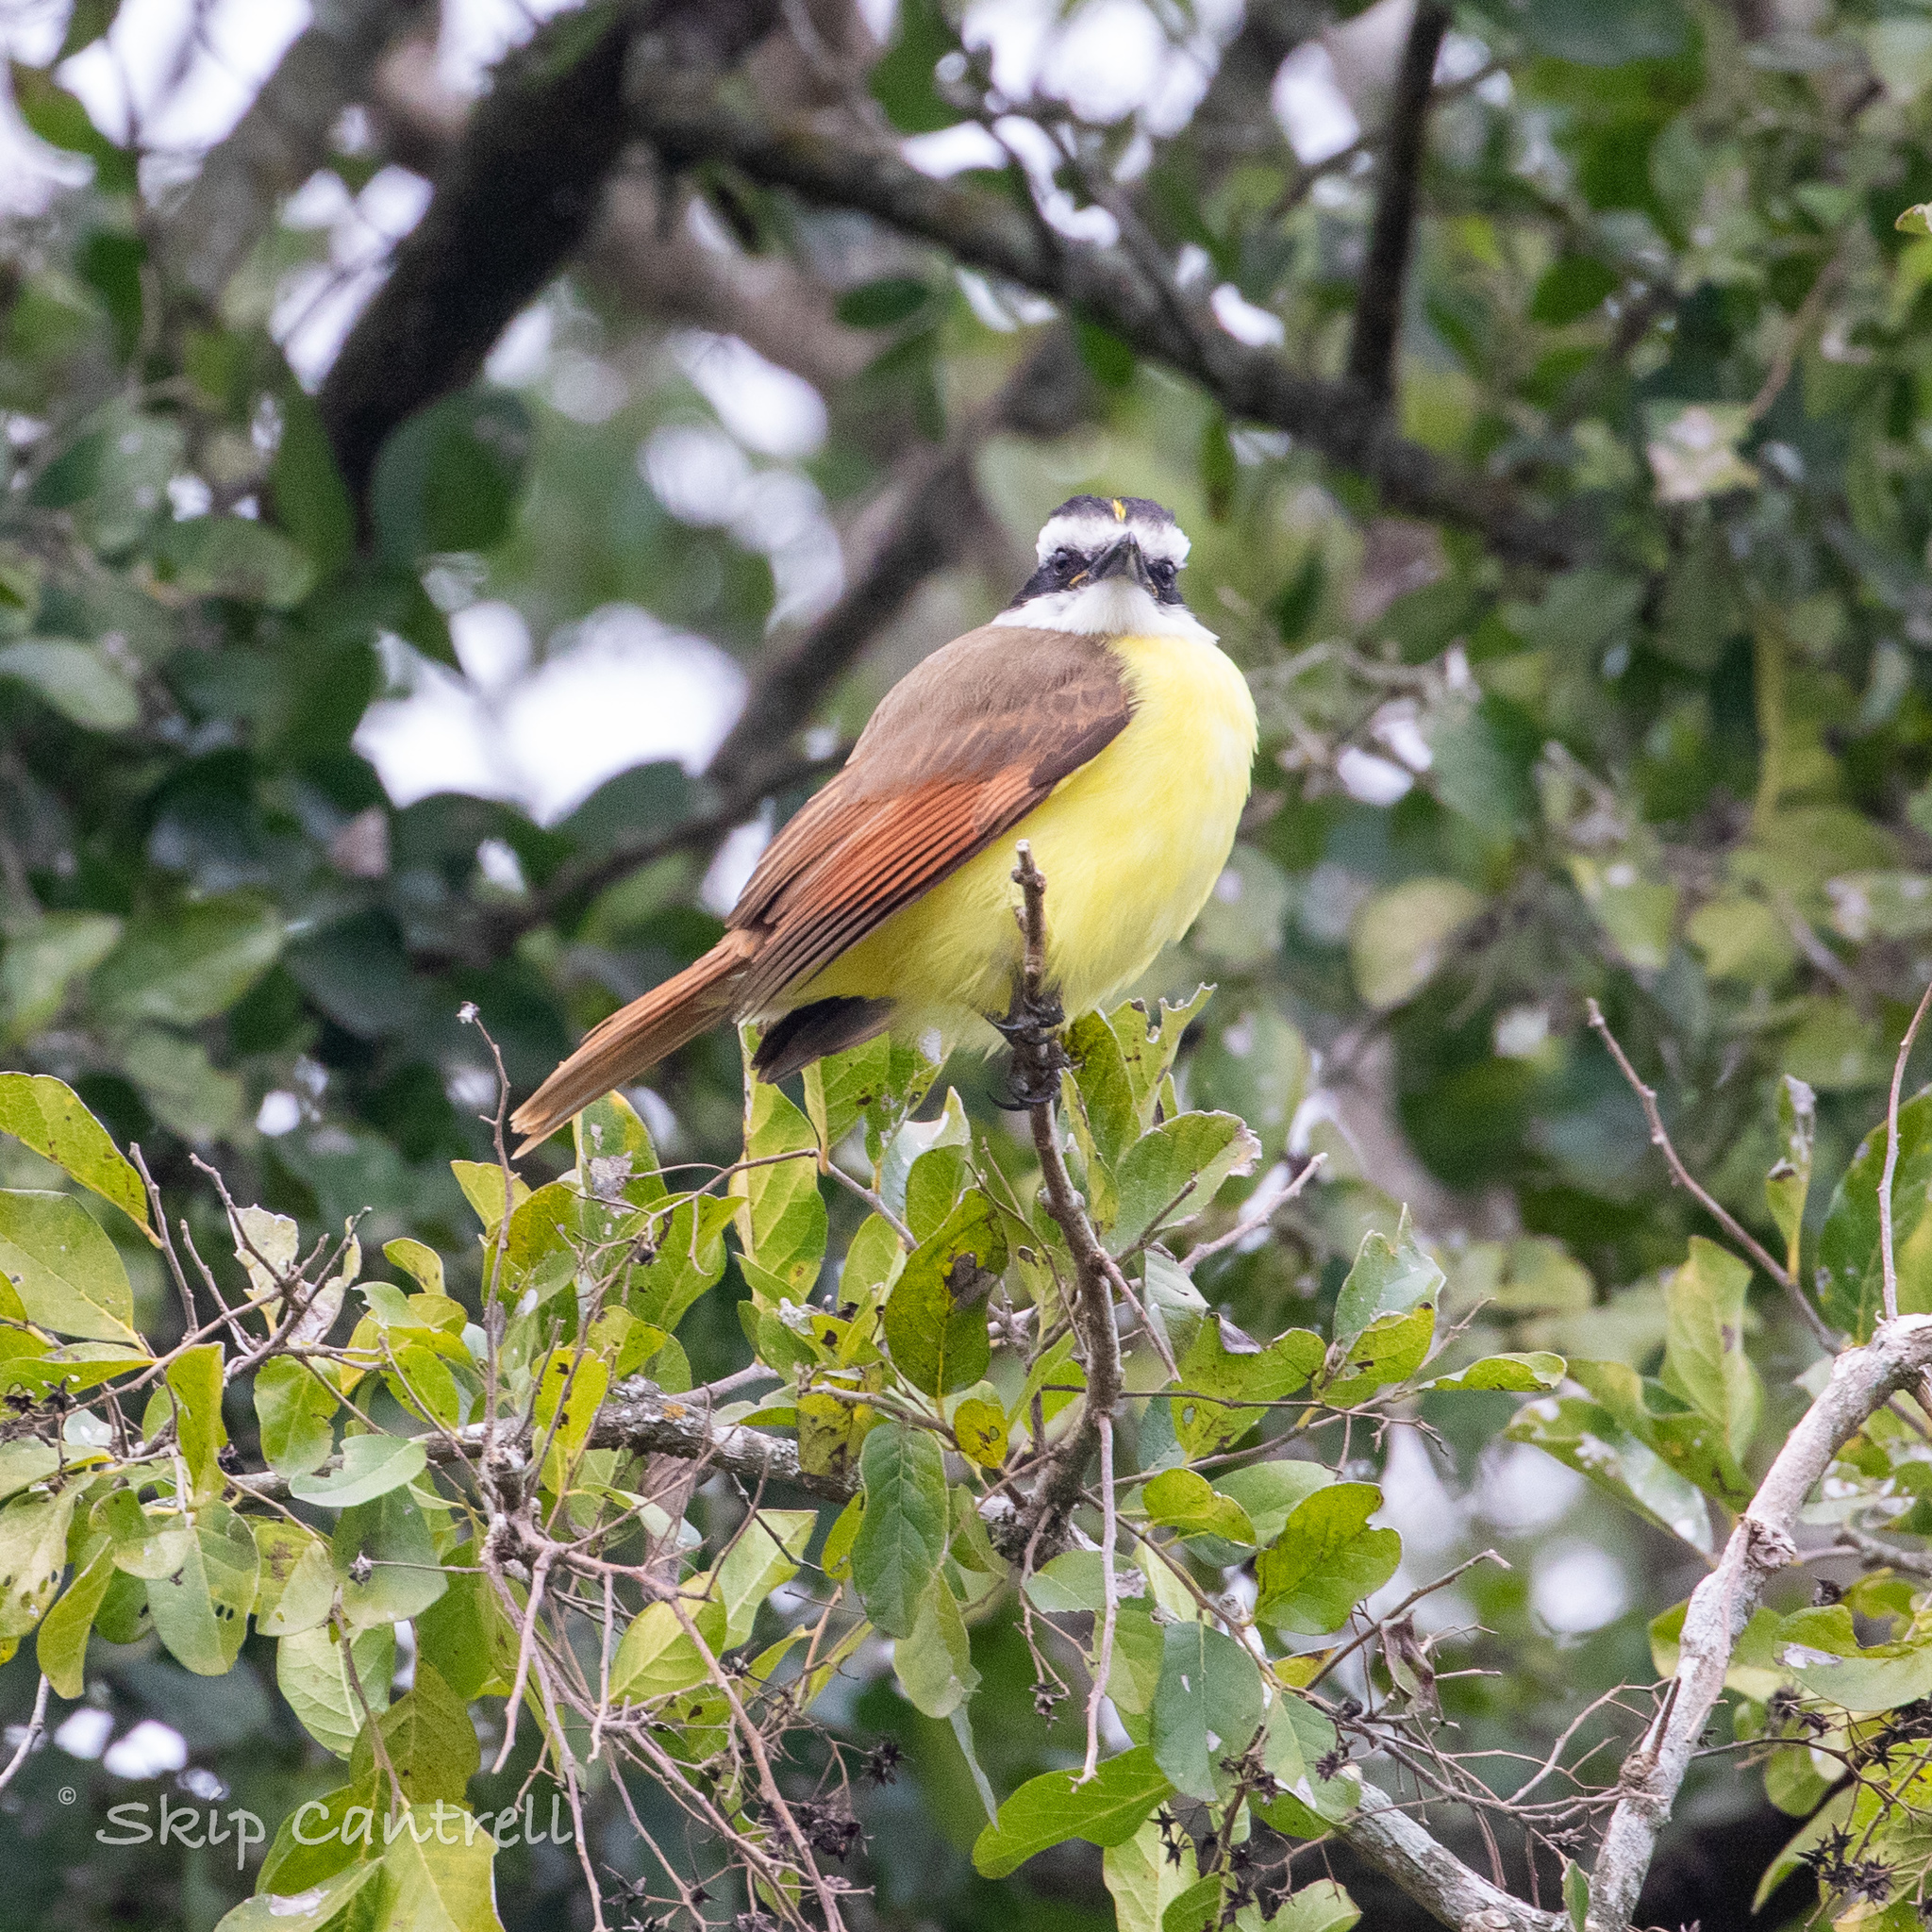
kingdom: Animalia
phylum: Chordata
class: Aves
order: Passeriformes
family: Tyrannidae
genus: Pitangus
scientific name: Pitangus sulphuratus
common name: Great kiskadee
